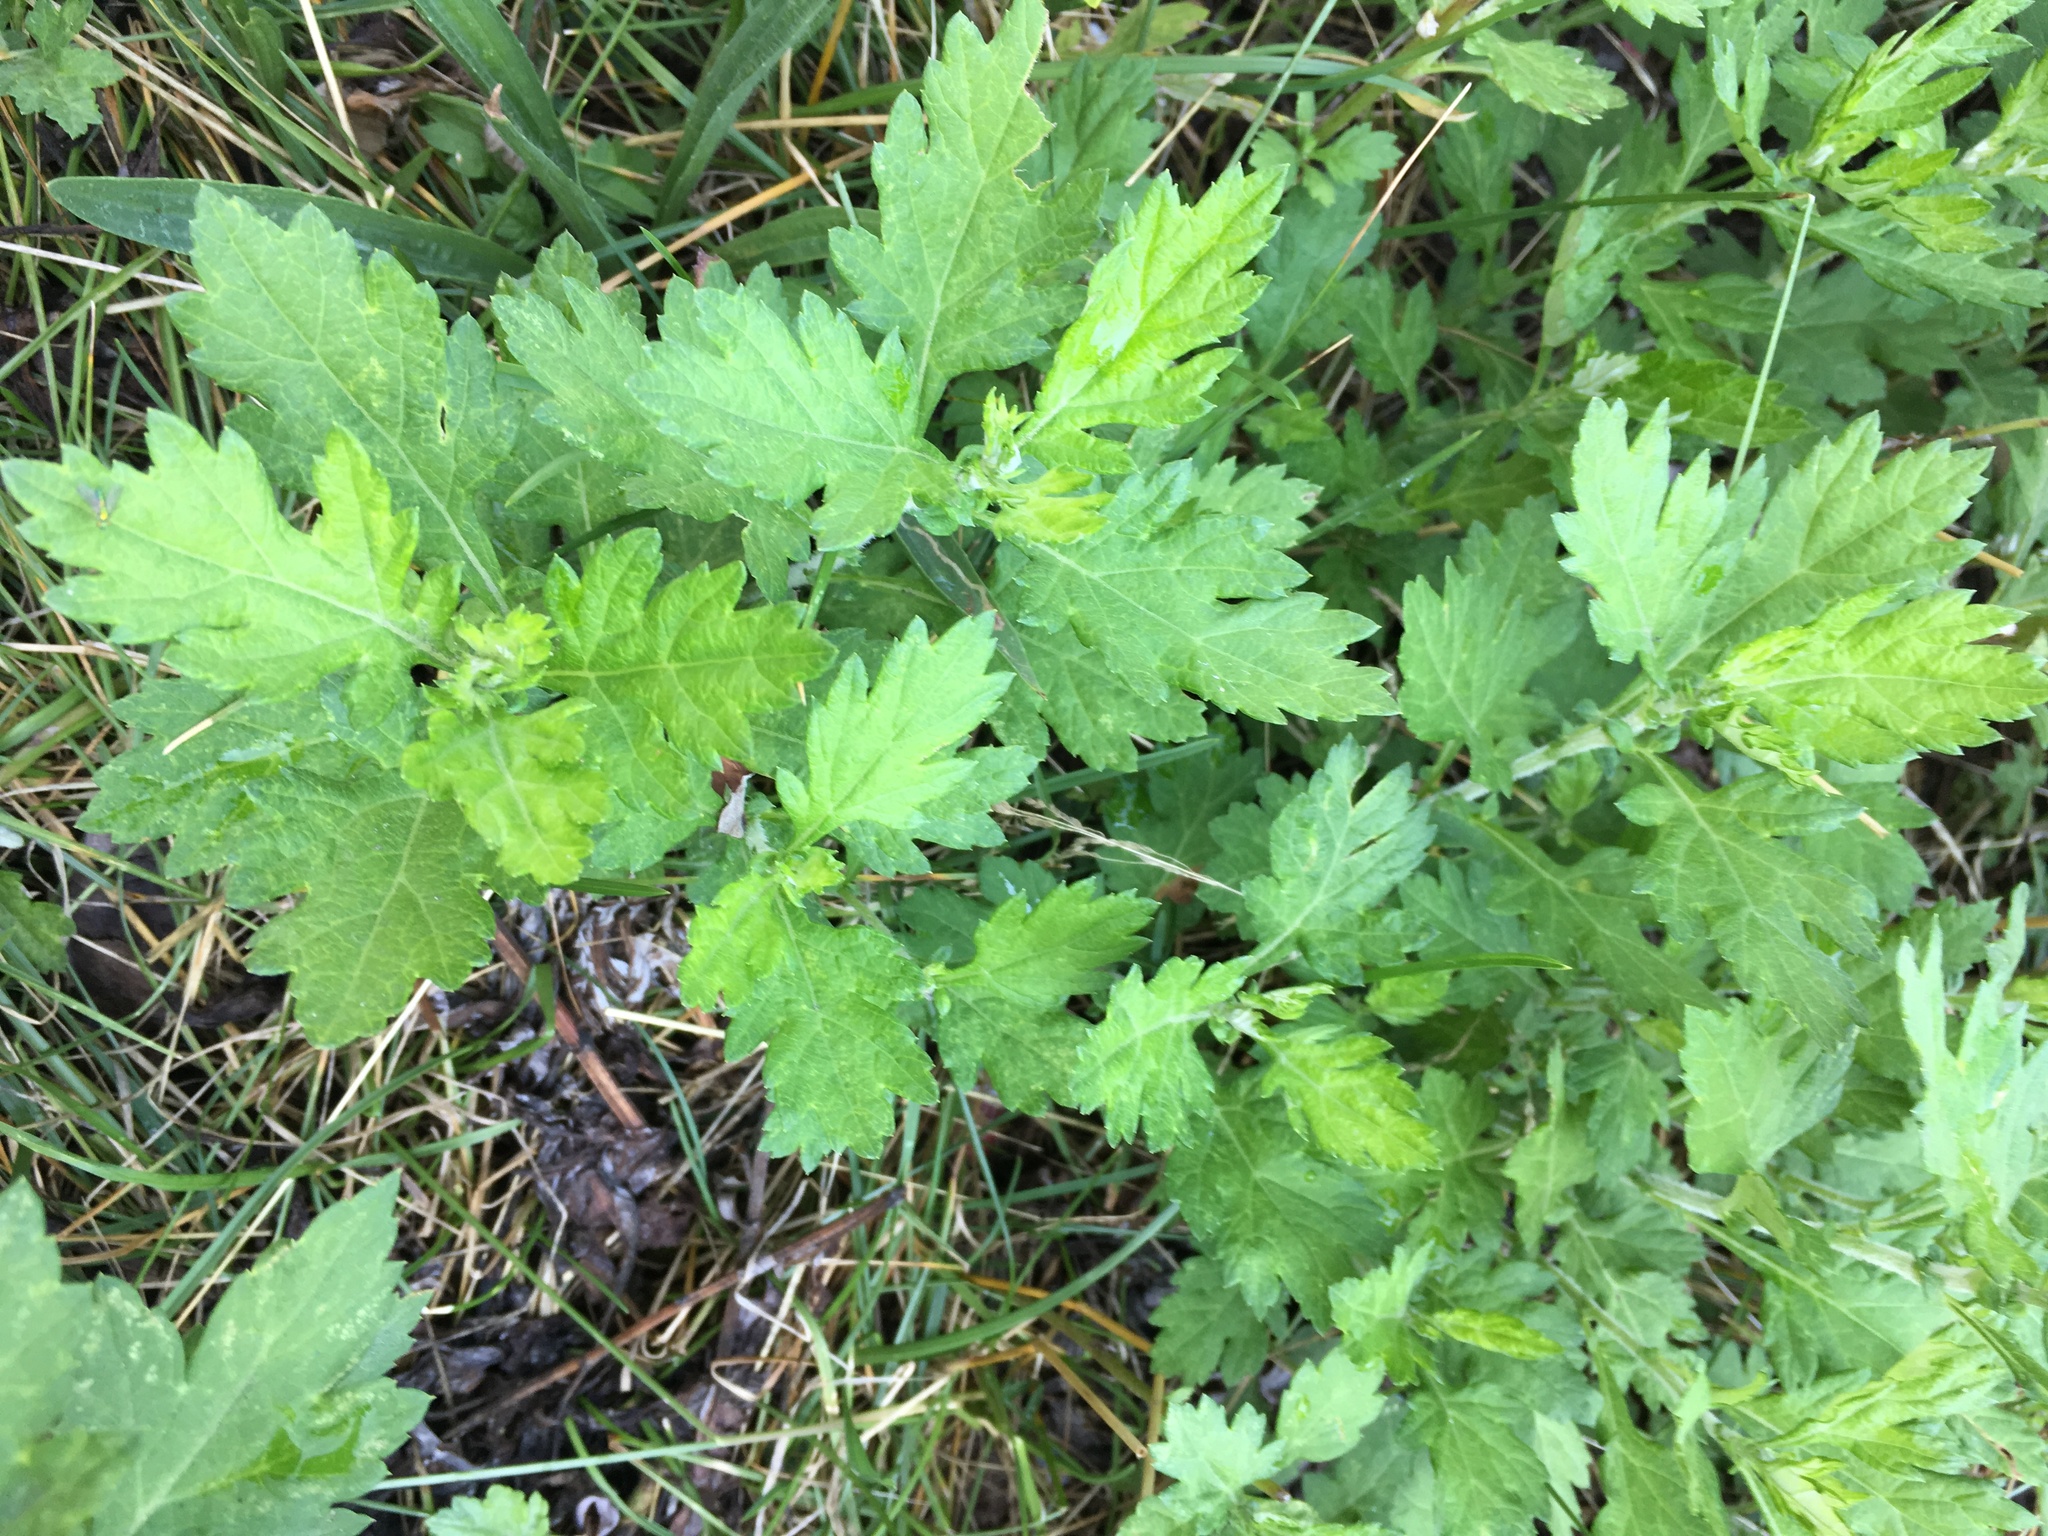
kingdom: Plantae
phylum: Tracheophyta
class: Magnoliopsida
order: Asterales
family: Asteraceae
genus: Artemisia
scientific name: Artemisia vulgaris
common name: Mugwort
